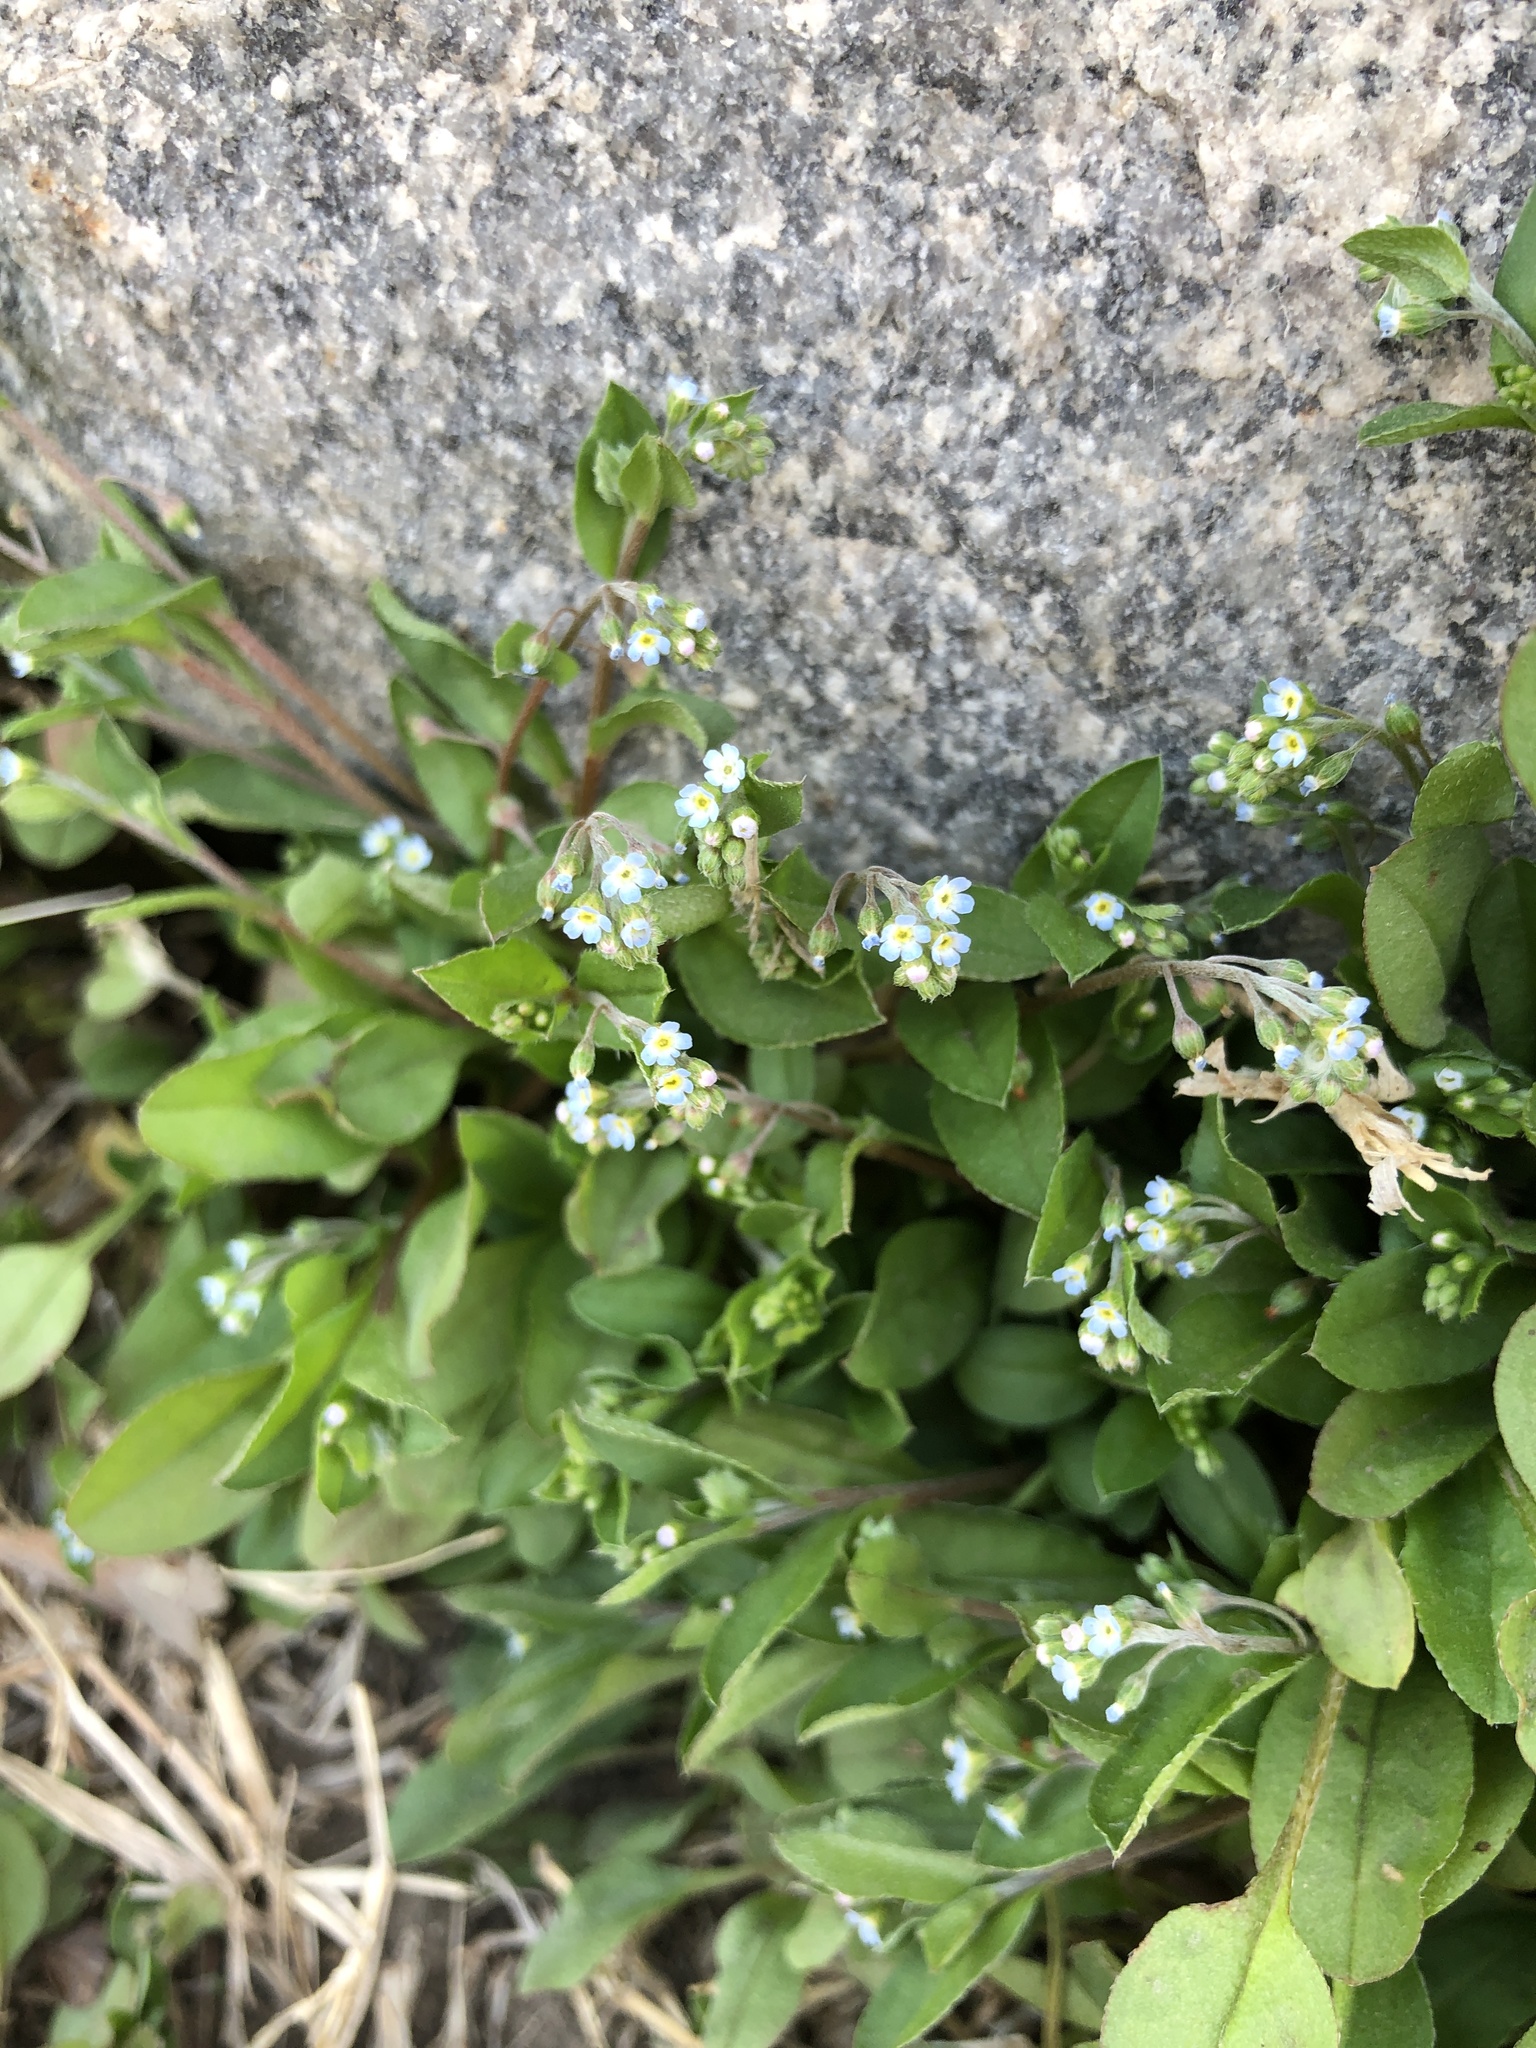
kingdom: Plantae
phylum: Tracheophyta
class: Magnoliopsida
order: Boraginales
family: Boraginaceae
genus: Trigonotis
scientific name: Trigonotis peduncularis
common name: Cucumber herb
